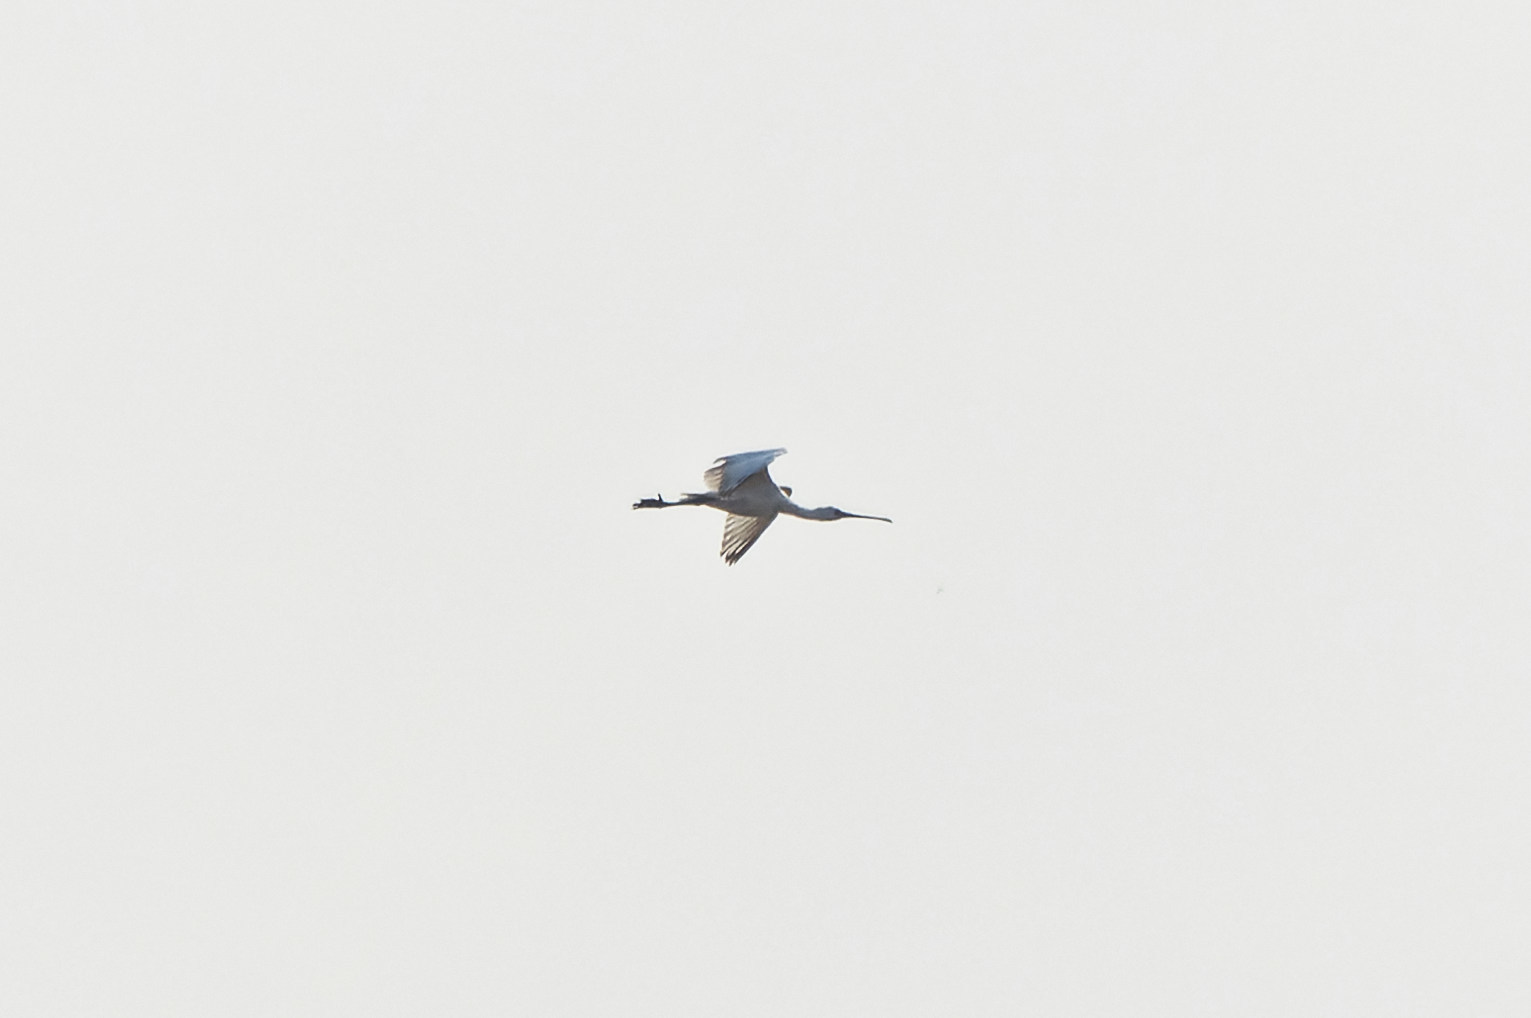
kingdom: Animalia
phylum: Chordata
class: Aves
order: Pelecaniformes
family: Threskiornithidae
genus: Platalea
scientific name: Platalea leucorodia
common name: Eurasian spoonbill
